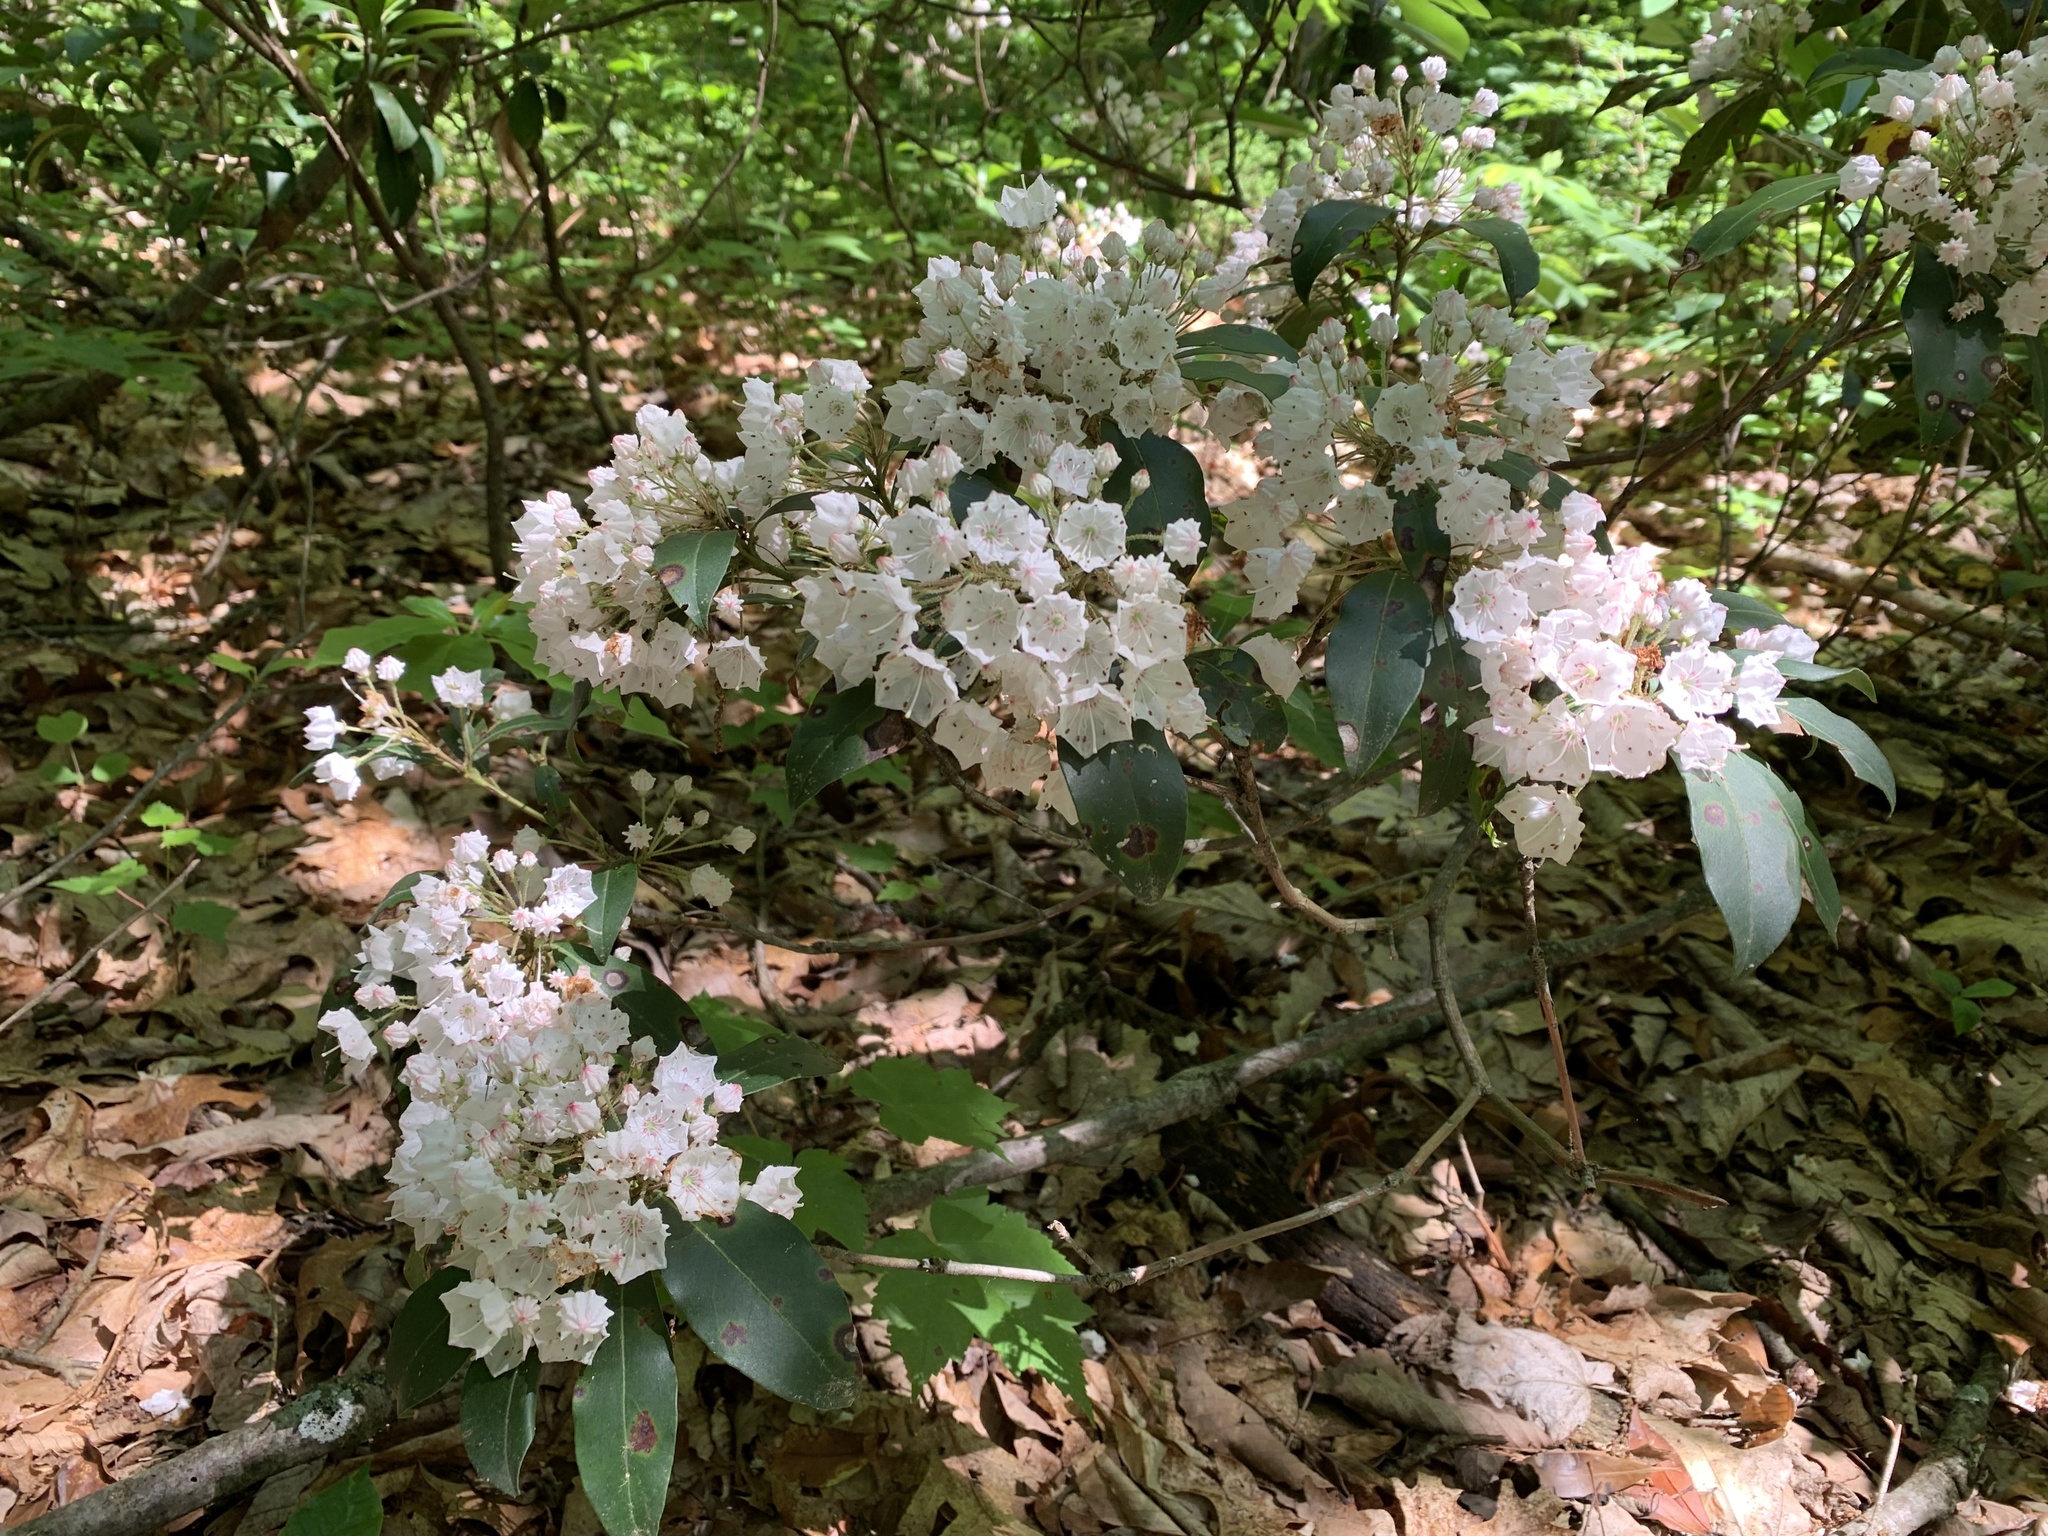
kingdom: Plantae
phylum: Tracheophyta
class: Magnoliopsida
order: Ericales
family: Ericaceae
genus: Kalmia
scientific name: Kalmia latifolia
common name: Mountain-laurel
